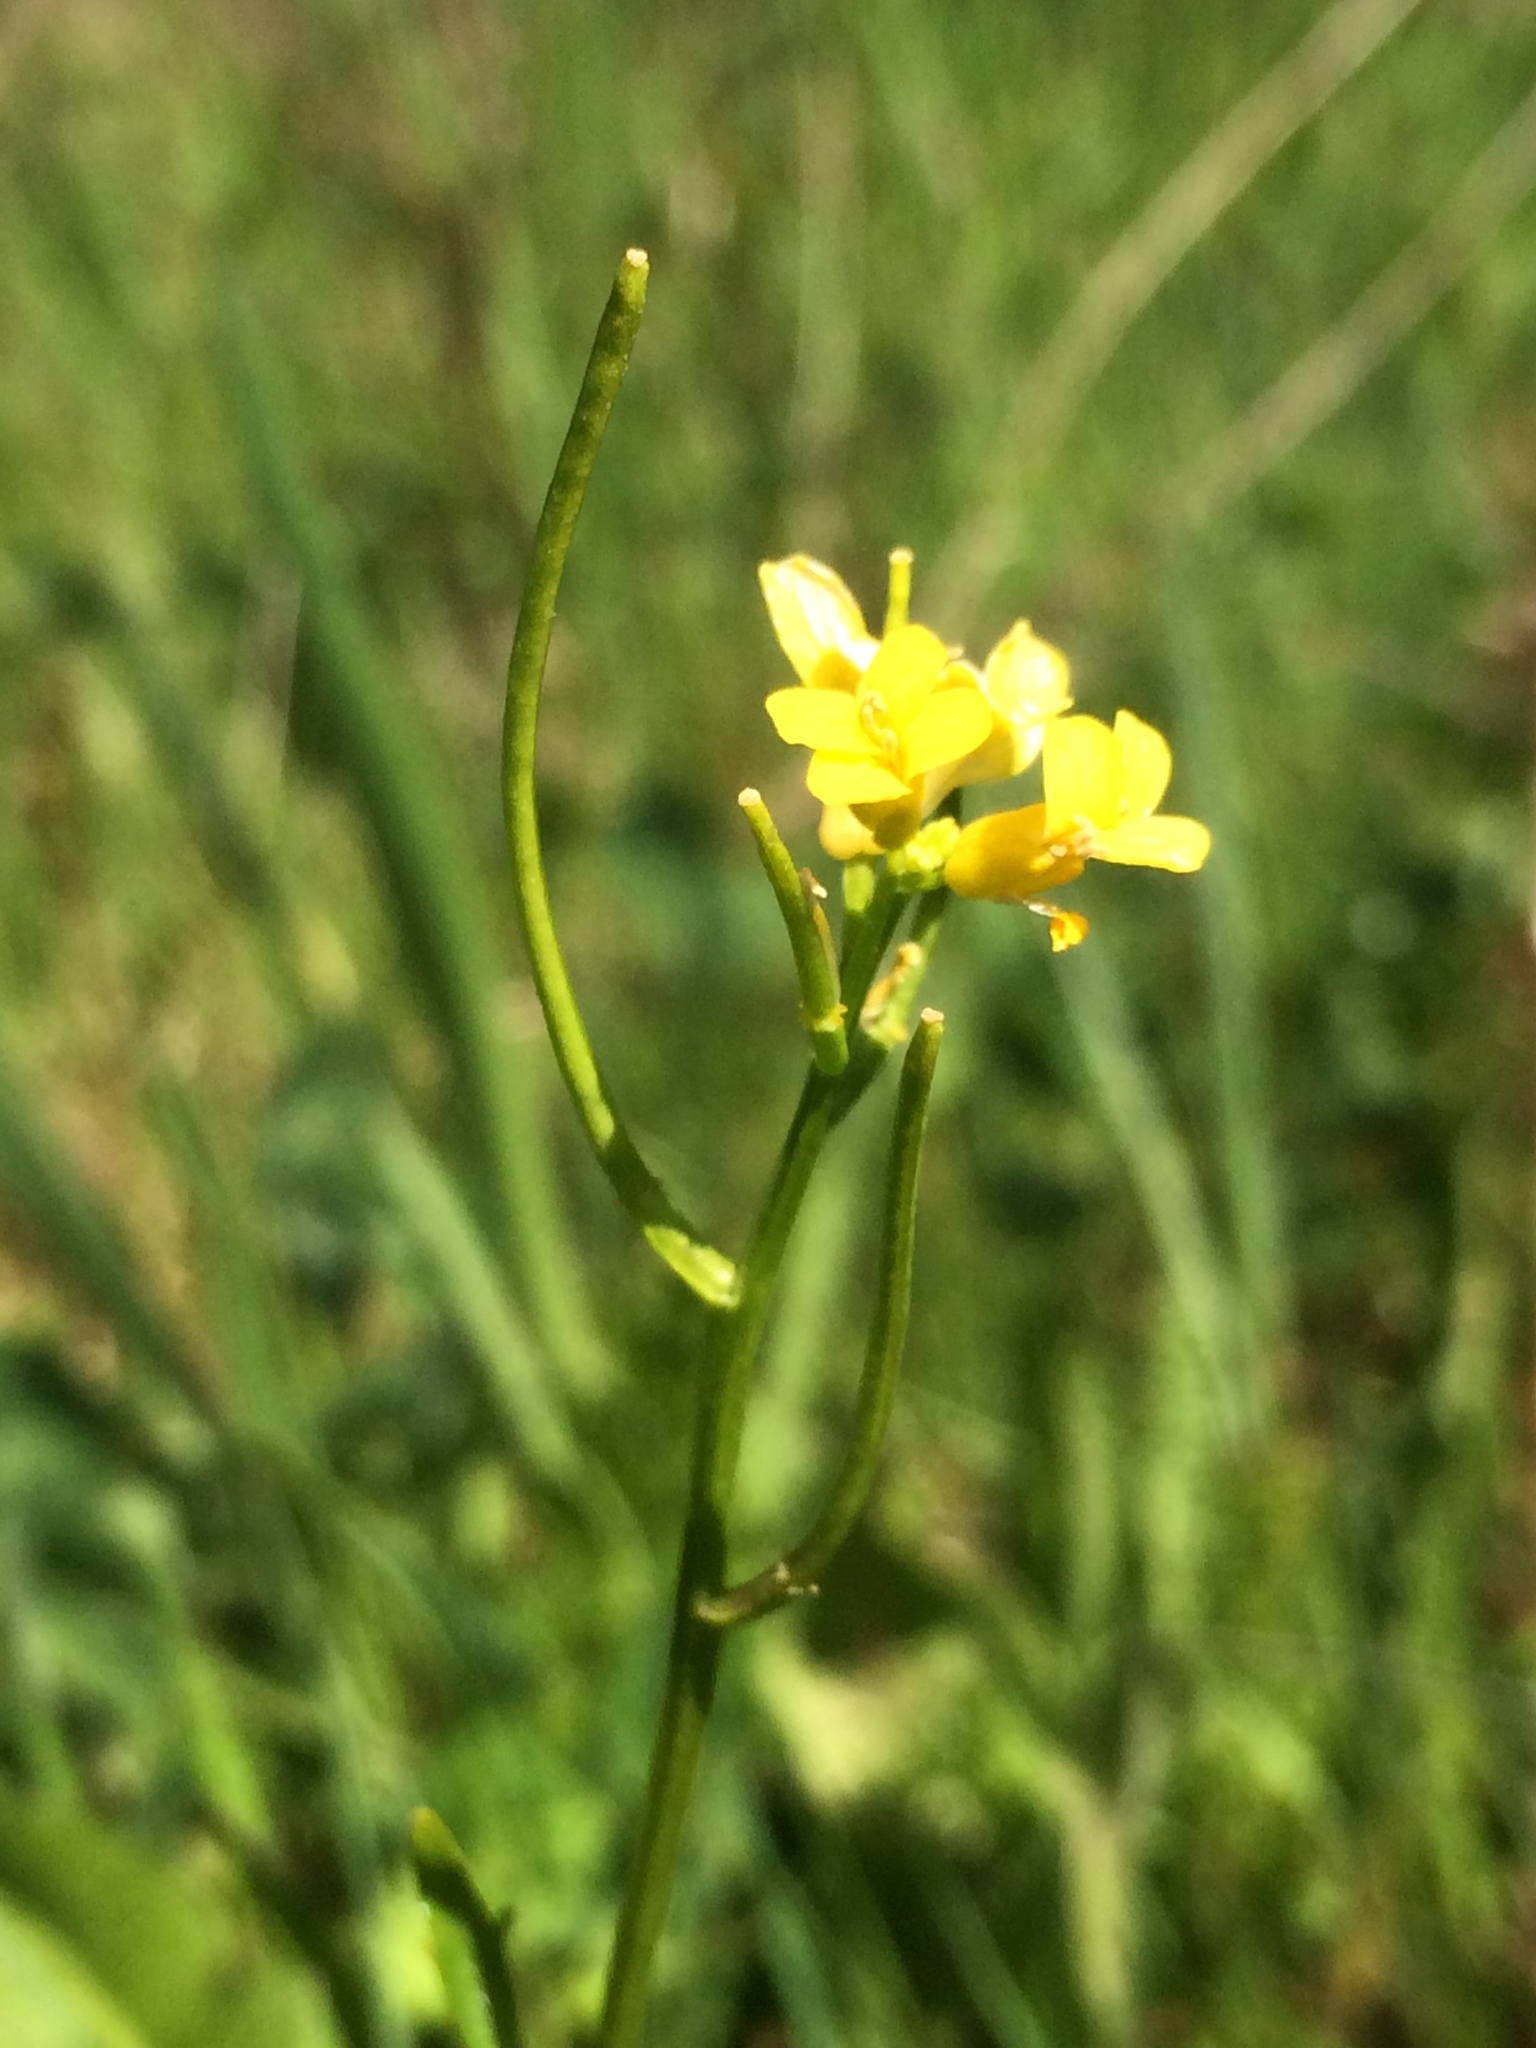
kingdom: Plantae
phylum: Tracheophyta
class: Magnoliopsida
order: Brassicales
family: Brassicaceae
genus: Barbarea
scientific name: Barbarea orthoceras
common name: American wintercress
